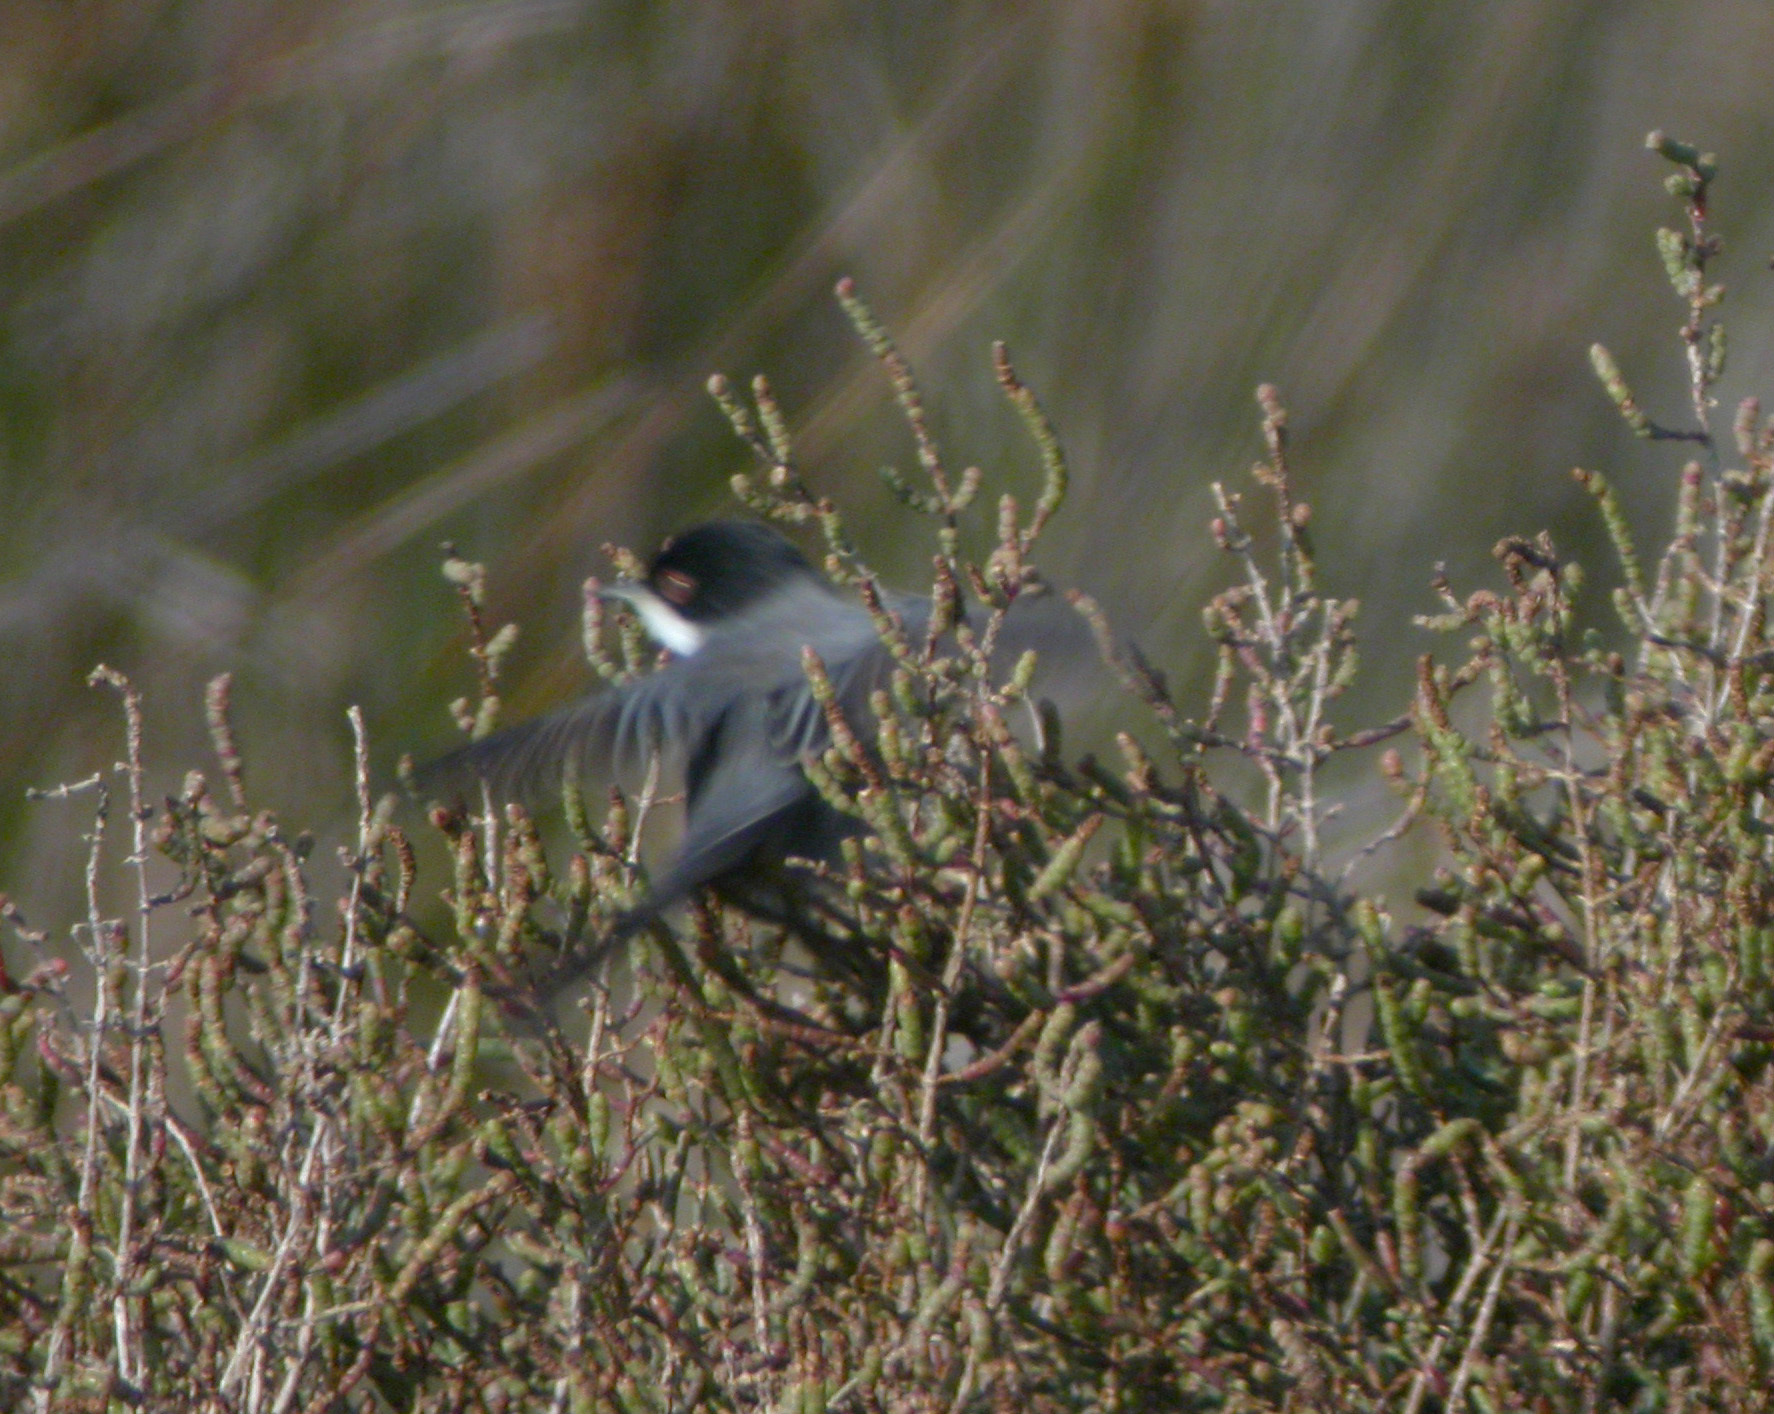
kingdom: Animalia
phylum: Chordata
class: Aves
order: Passeriformes
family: Sylviidae
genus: Curruca
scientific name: Curruca melanocephala
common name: Sardinian warbler
